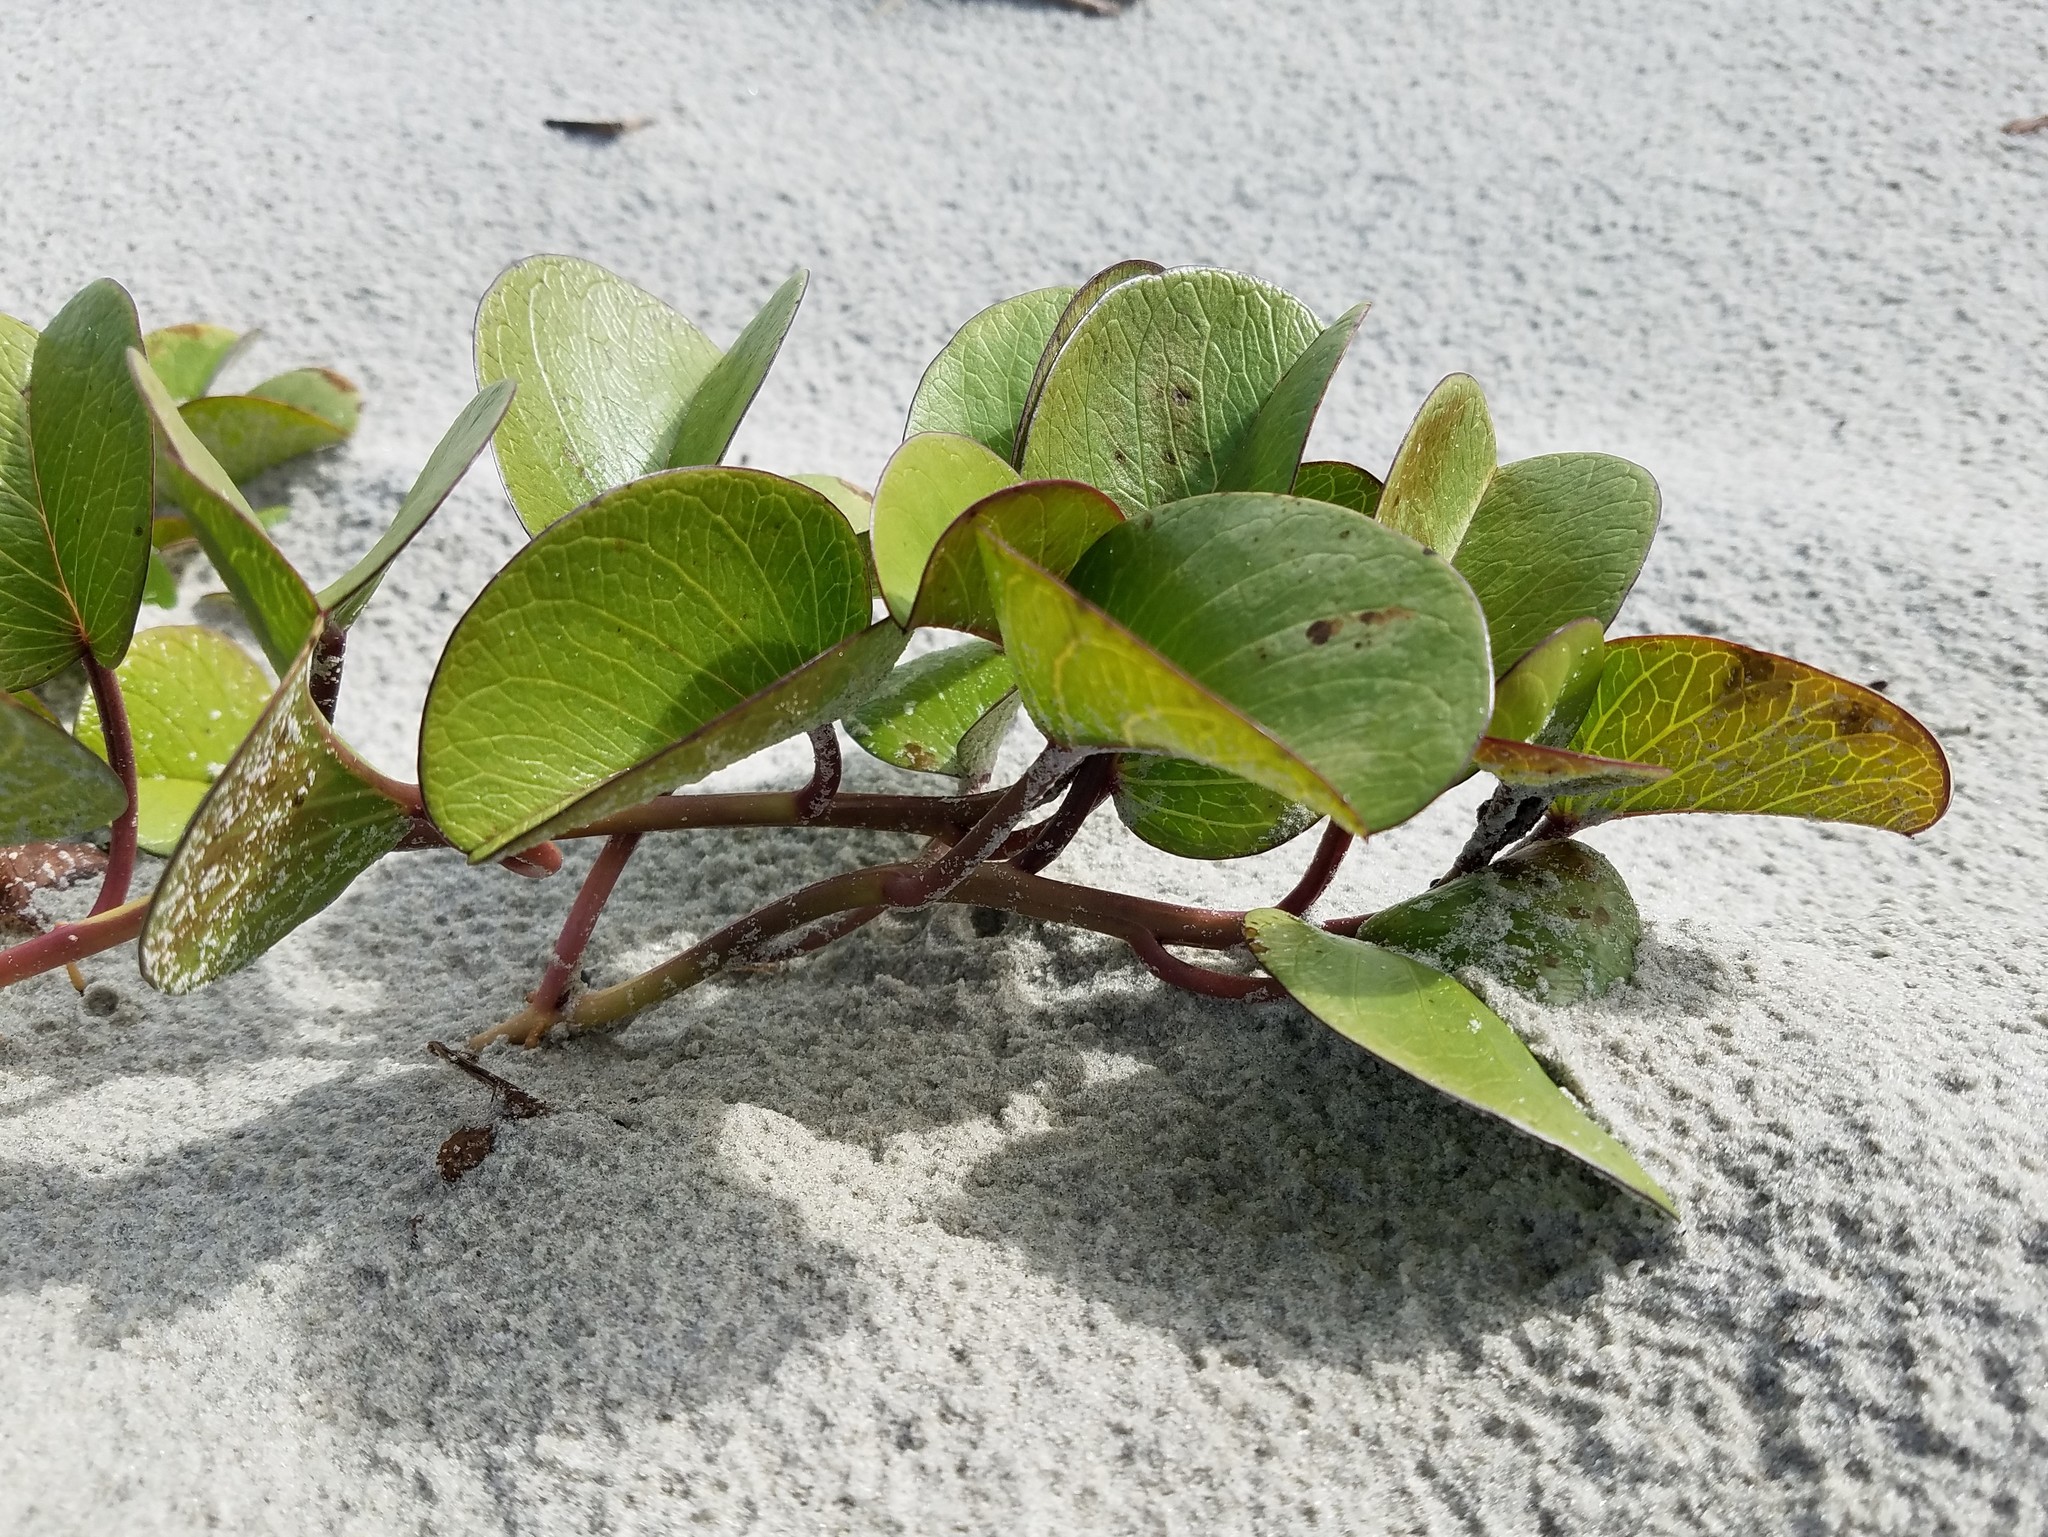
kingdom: Plantae
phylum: Tracheophyta
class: Magnoliopsida
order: Solanales
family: Convolvulaceae
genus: Ipomoea
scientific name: Ipomoea pes-caprae
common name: Beach morning glory
